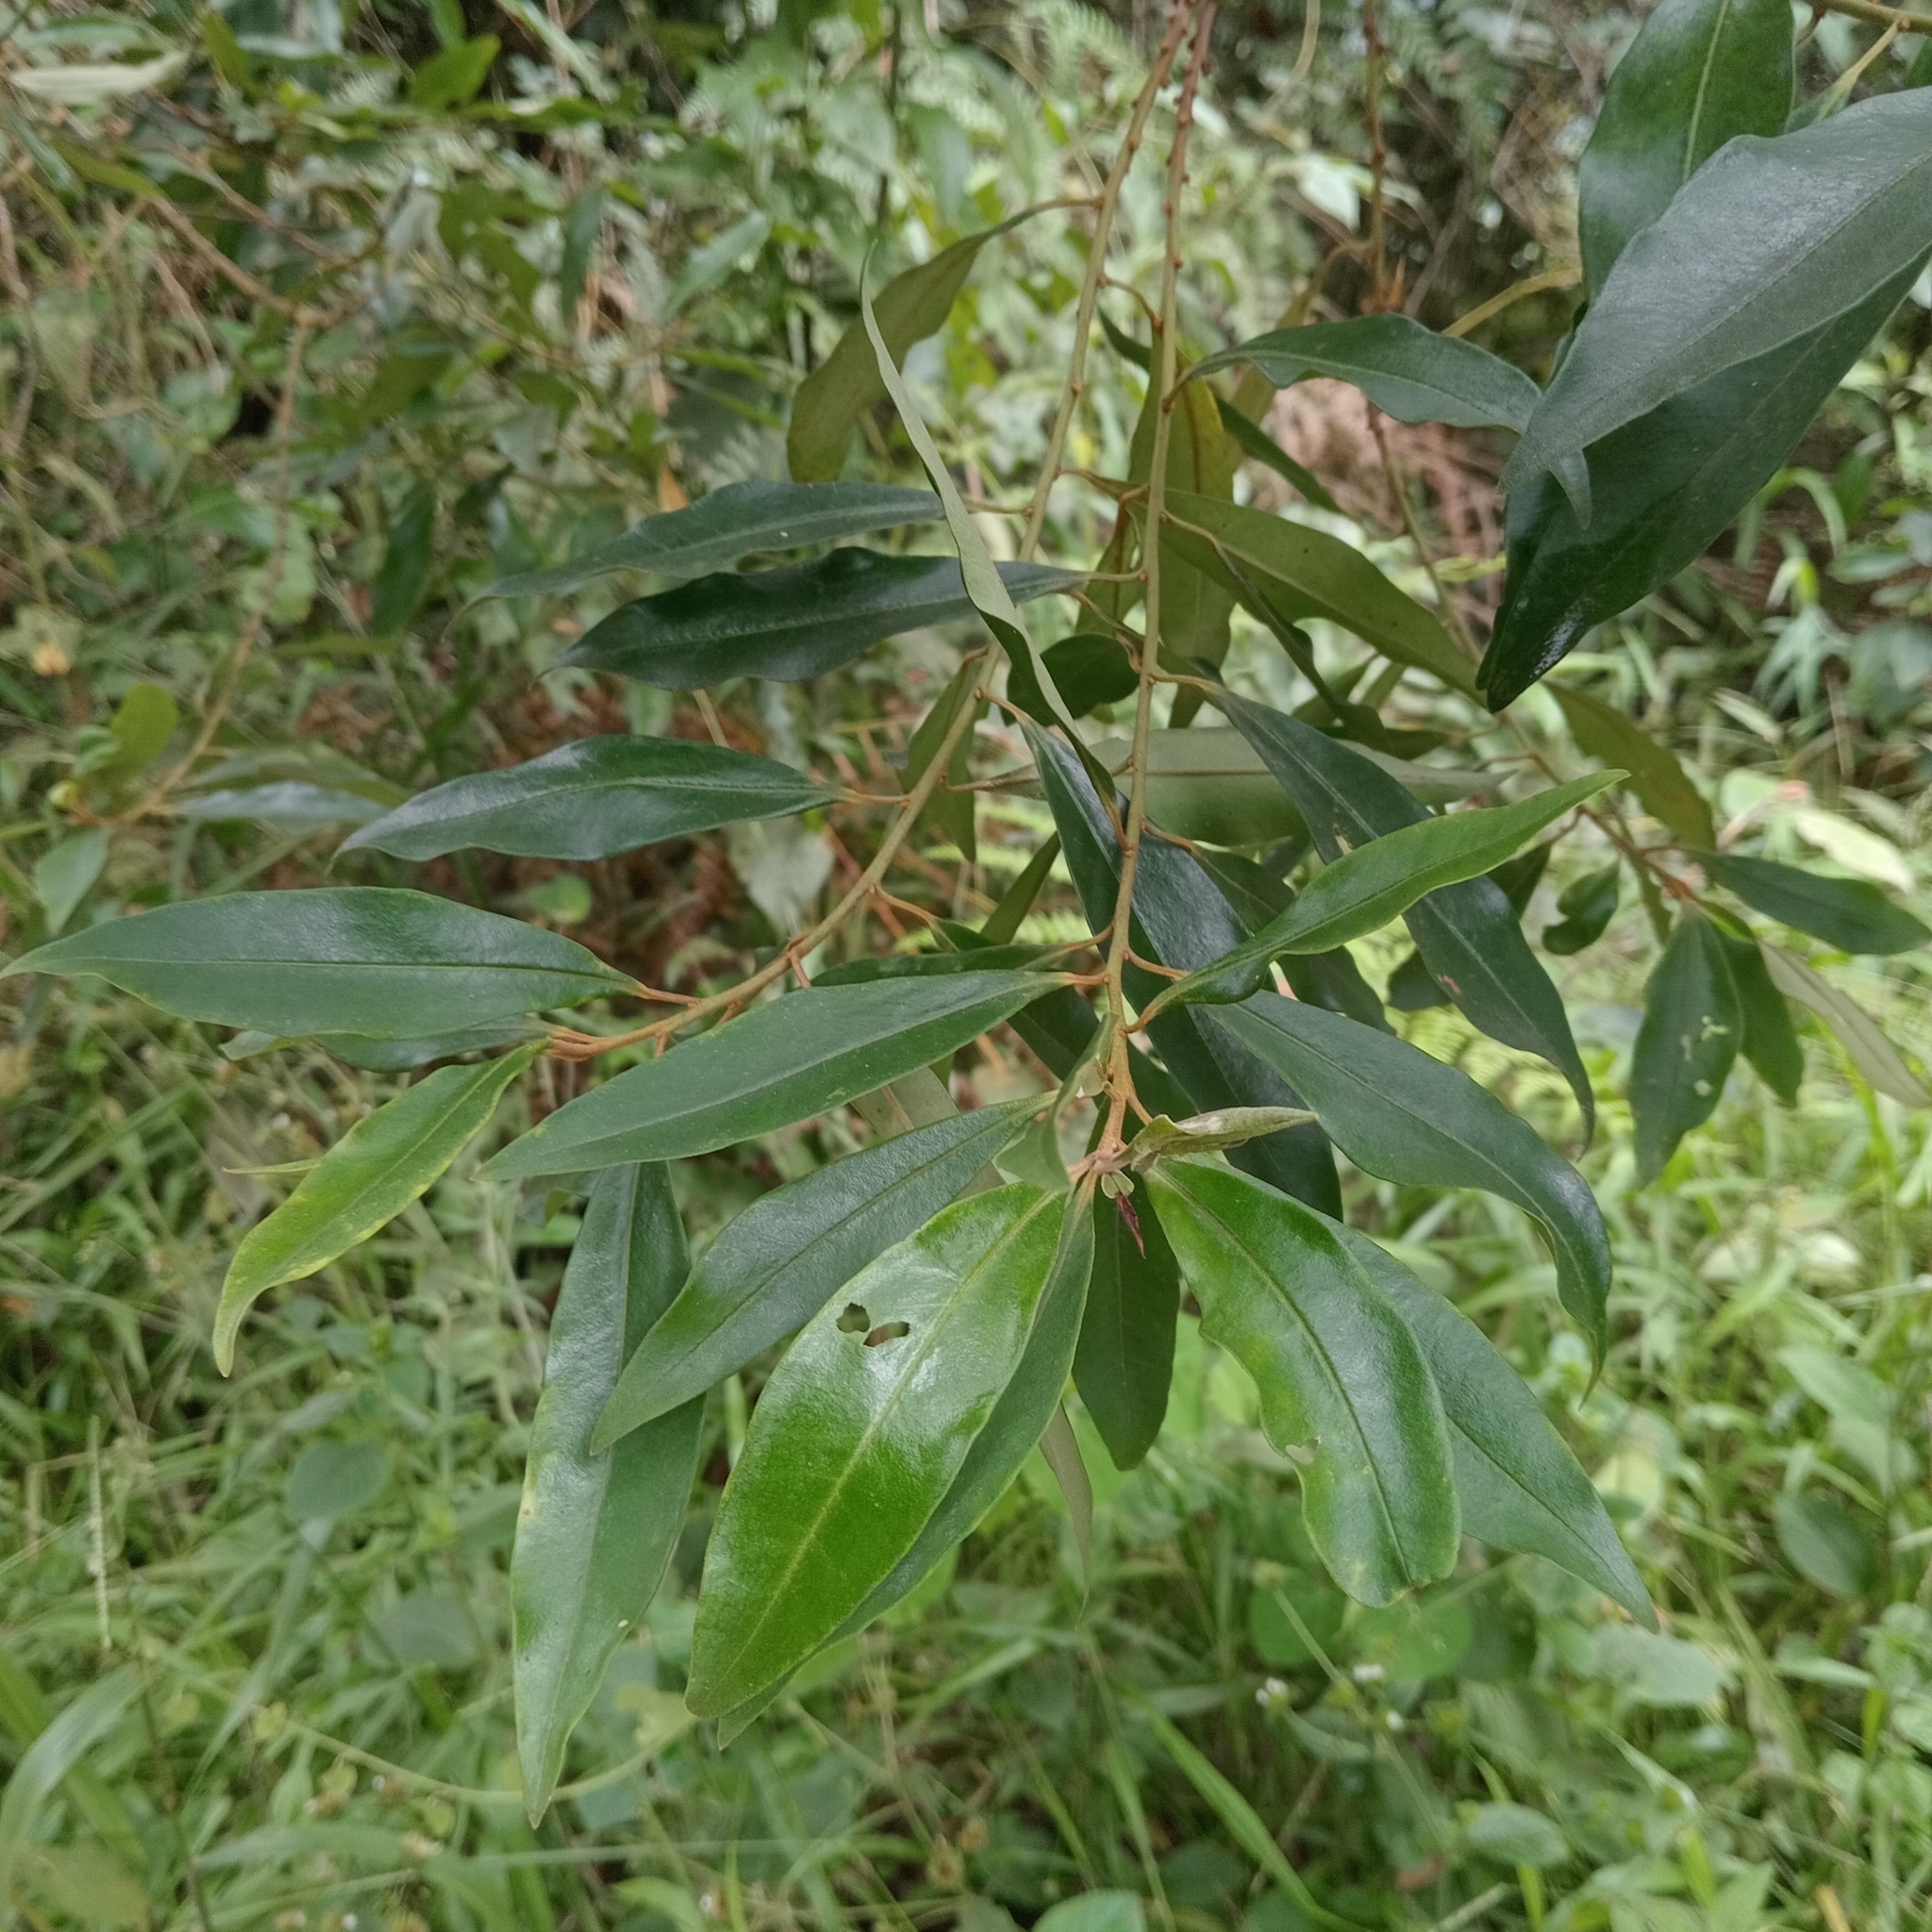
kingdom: Plantae
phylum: Tracheophyta
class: Magnoliopsida
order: Ericales
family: Primulaceae
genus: Myrsine
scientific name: Myrsine coriacea
